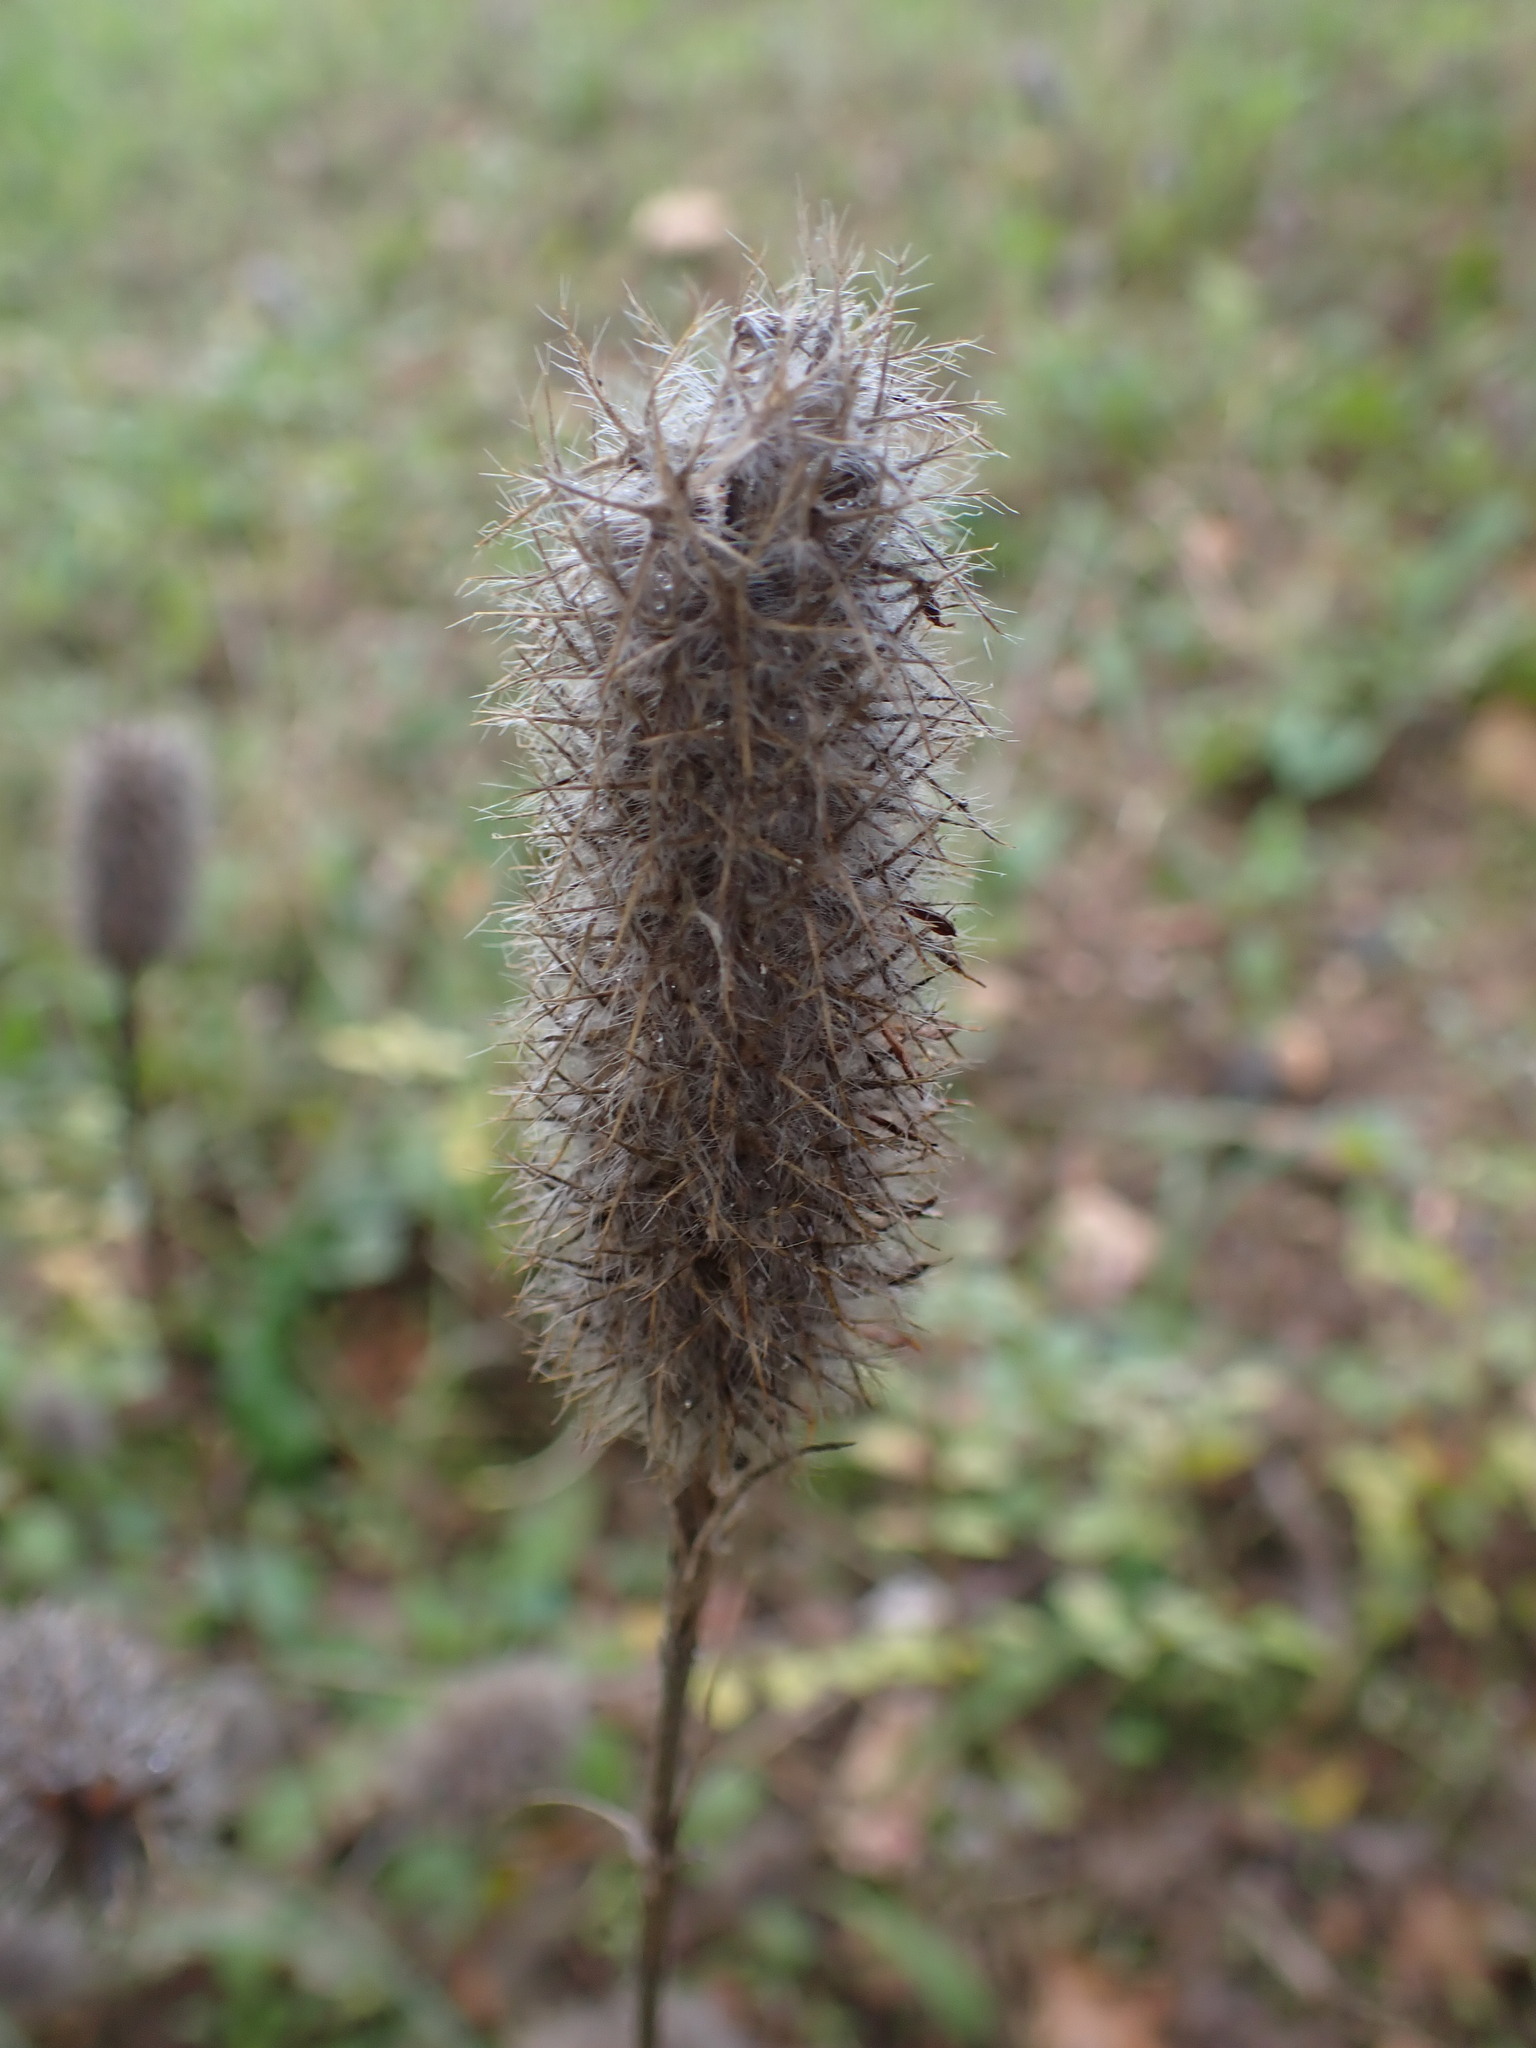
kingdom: Plantae
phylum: Tracheophyta
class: Magnoliopsida
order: Fabales
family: Fabaceae
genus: Trifolium
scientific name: Trifolium angustifolium
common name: Narrow clover
